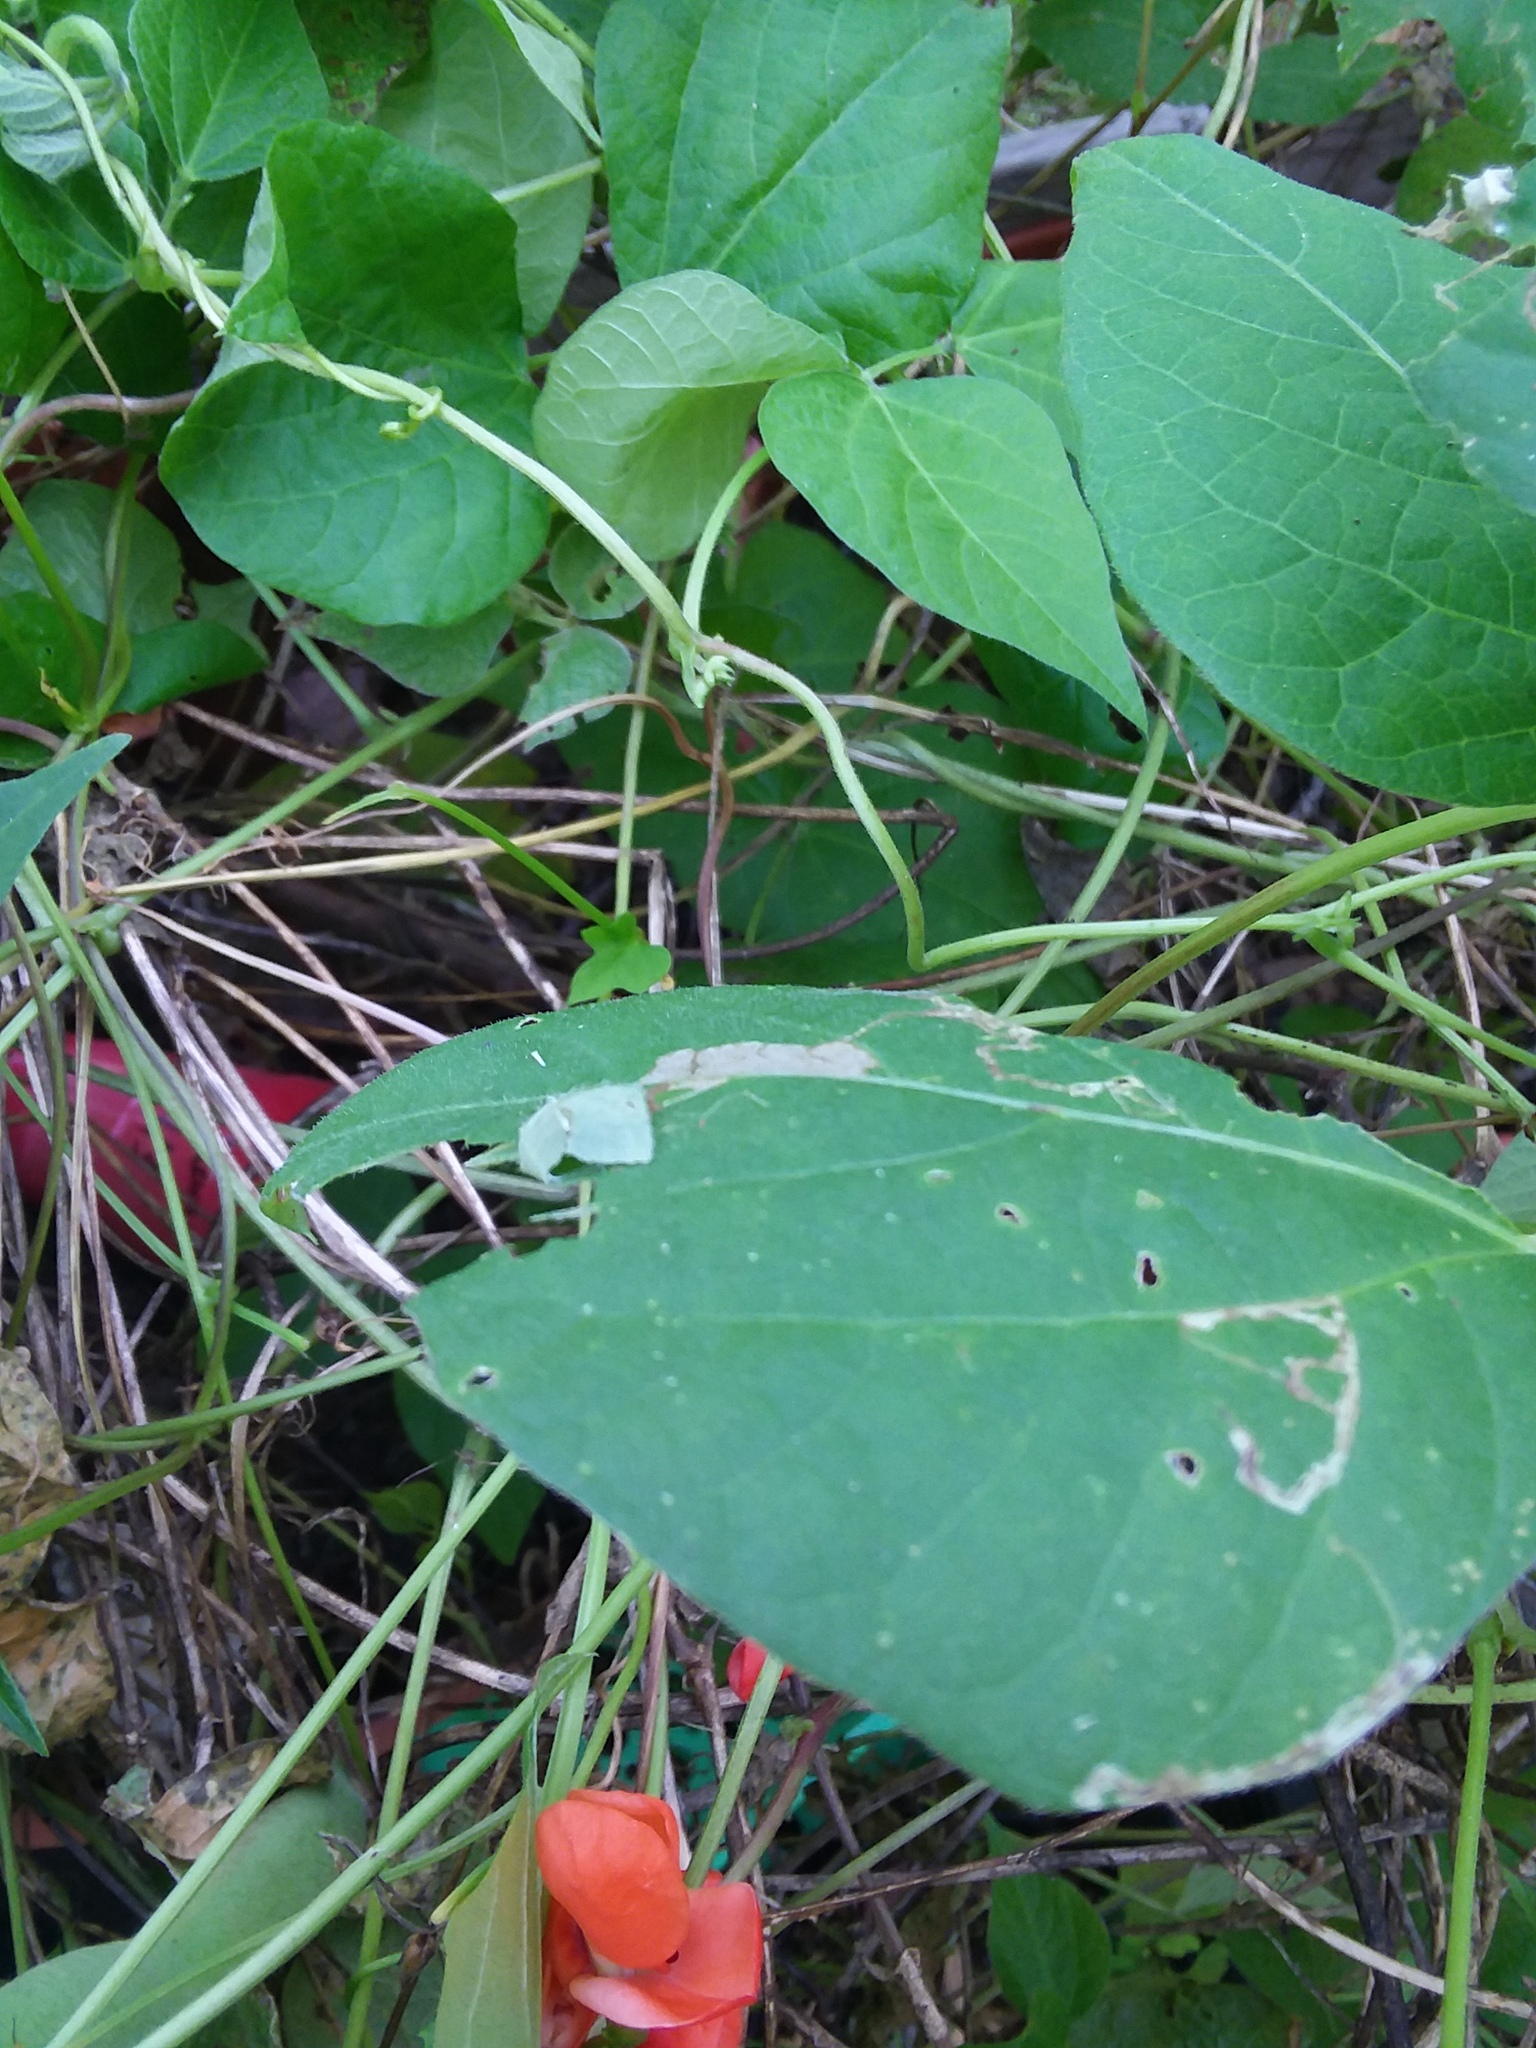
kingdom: Animalia
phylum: Arthropoda
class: Insecta
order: Lepidoptera
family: Hesperiidae
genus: Urbanus
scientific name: Urbanus proteus
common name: Long-tailed skipper
